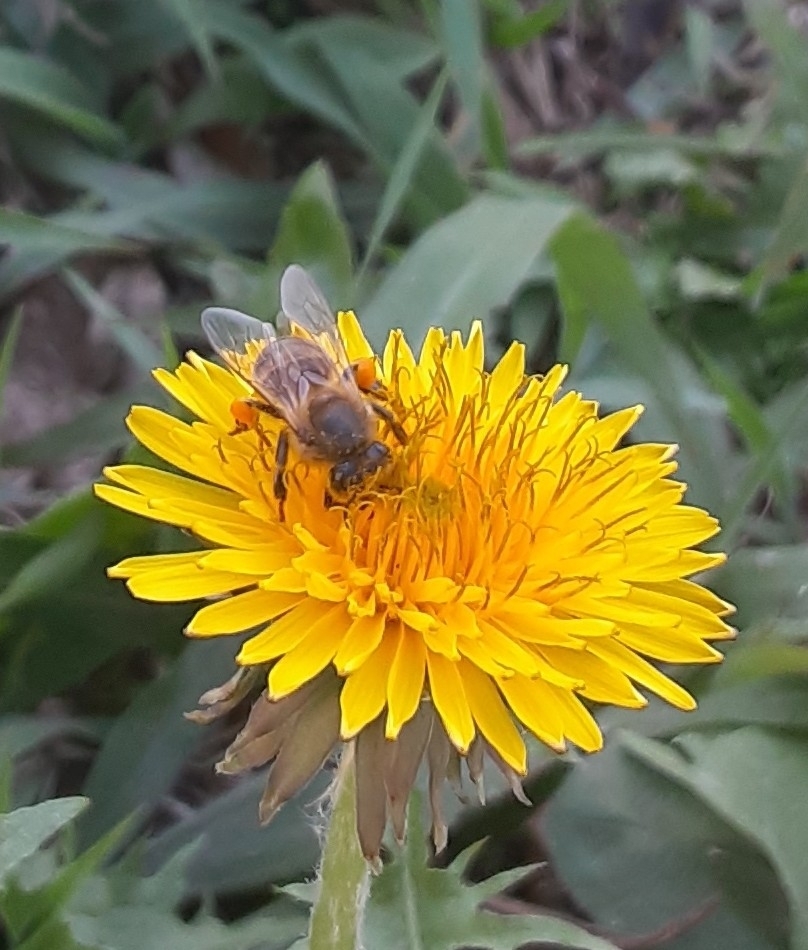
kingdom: Animalia
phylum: Arthropoda
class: Insecta
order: Hymenoptera
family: Apidae
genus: Apis
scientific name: Apis mellifera
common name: Honey bee
